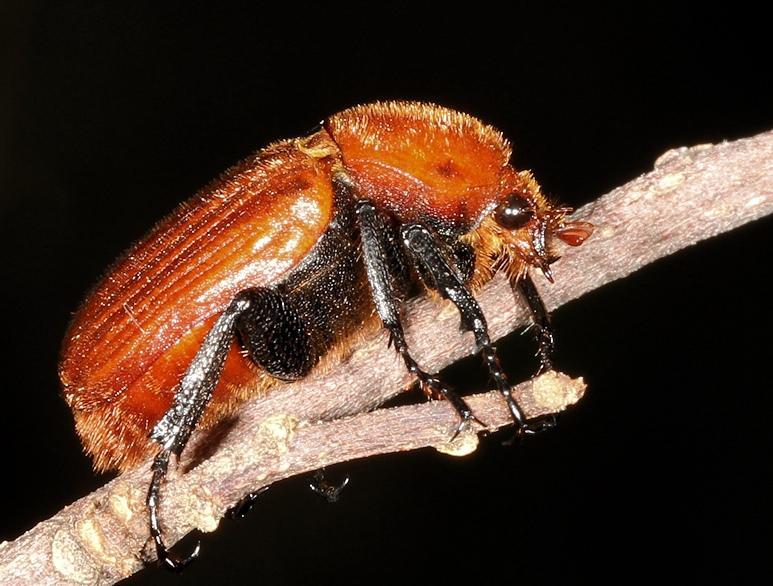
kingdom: Animalia
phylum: Arthropoda
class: Insecta
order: Coleoptera
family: Scarabaeidae
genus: Myodermum
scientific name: Myodermum rufum
